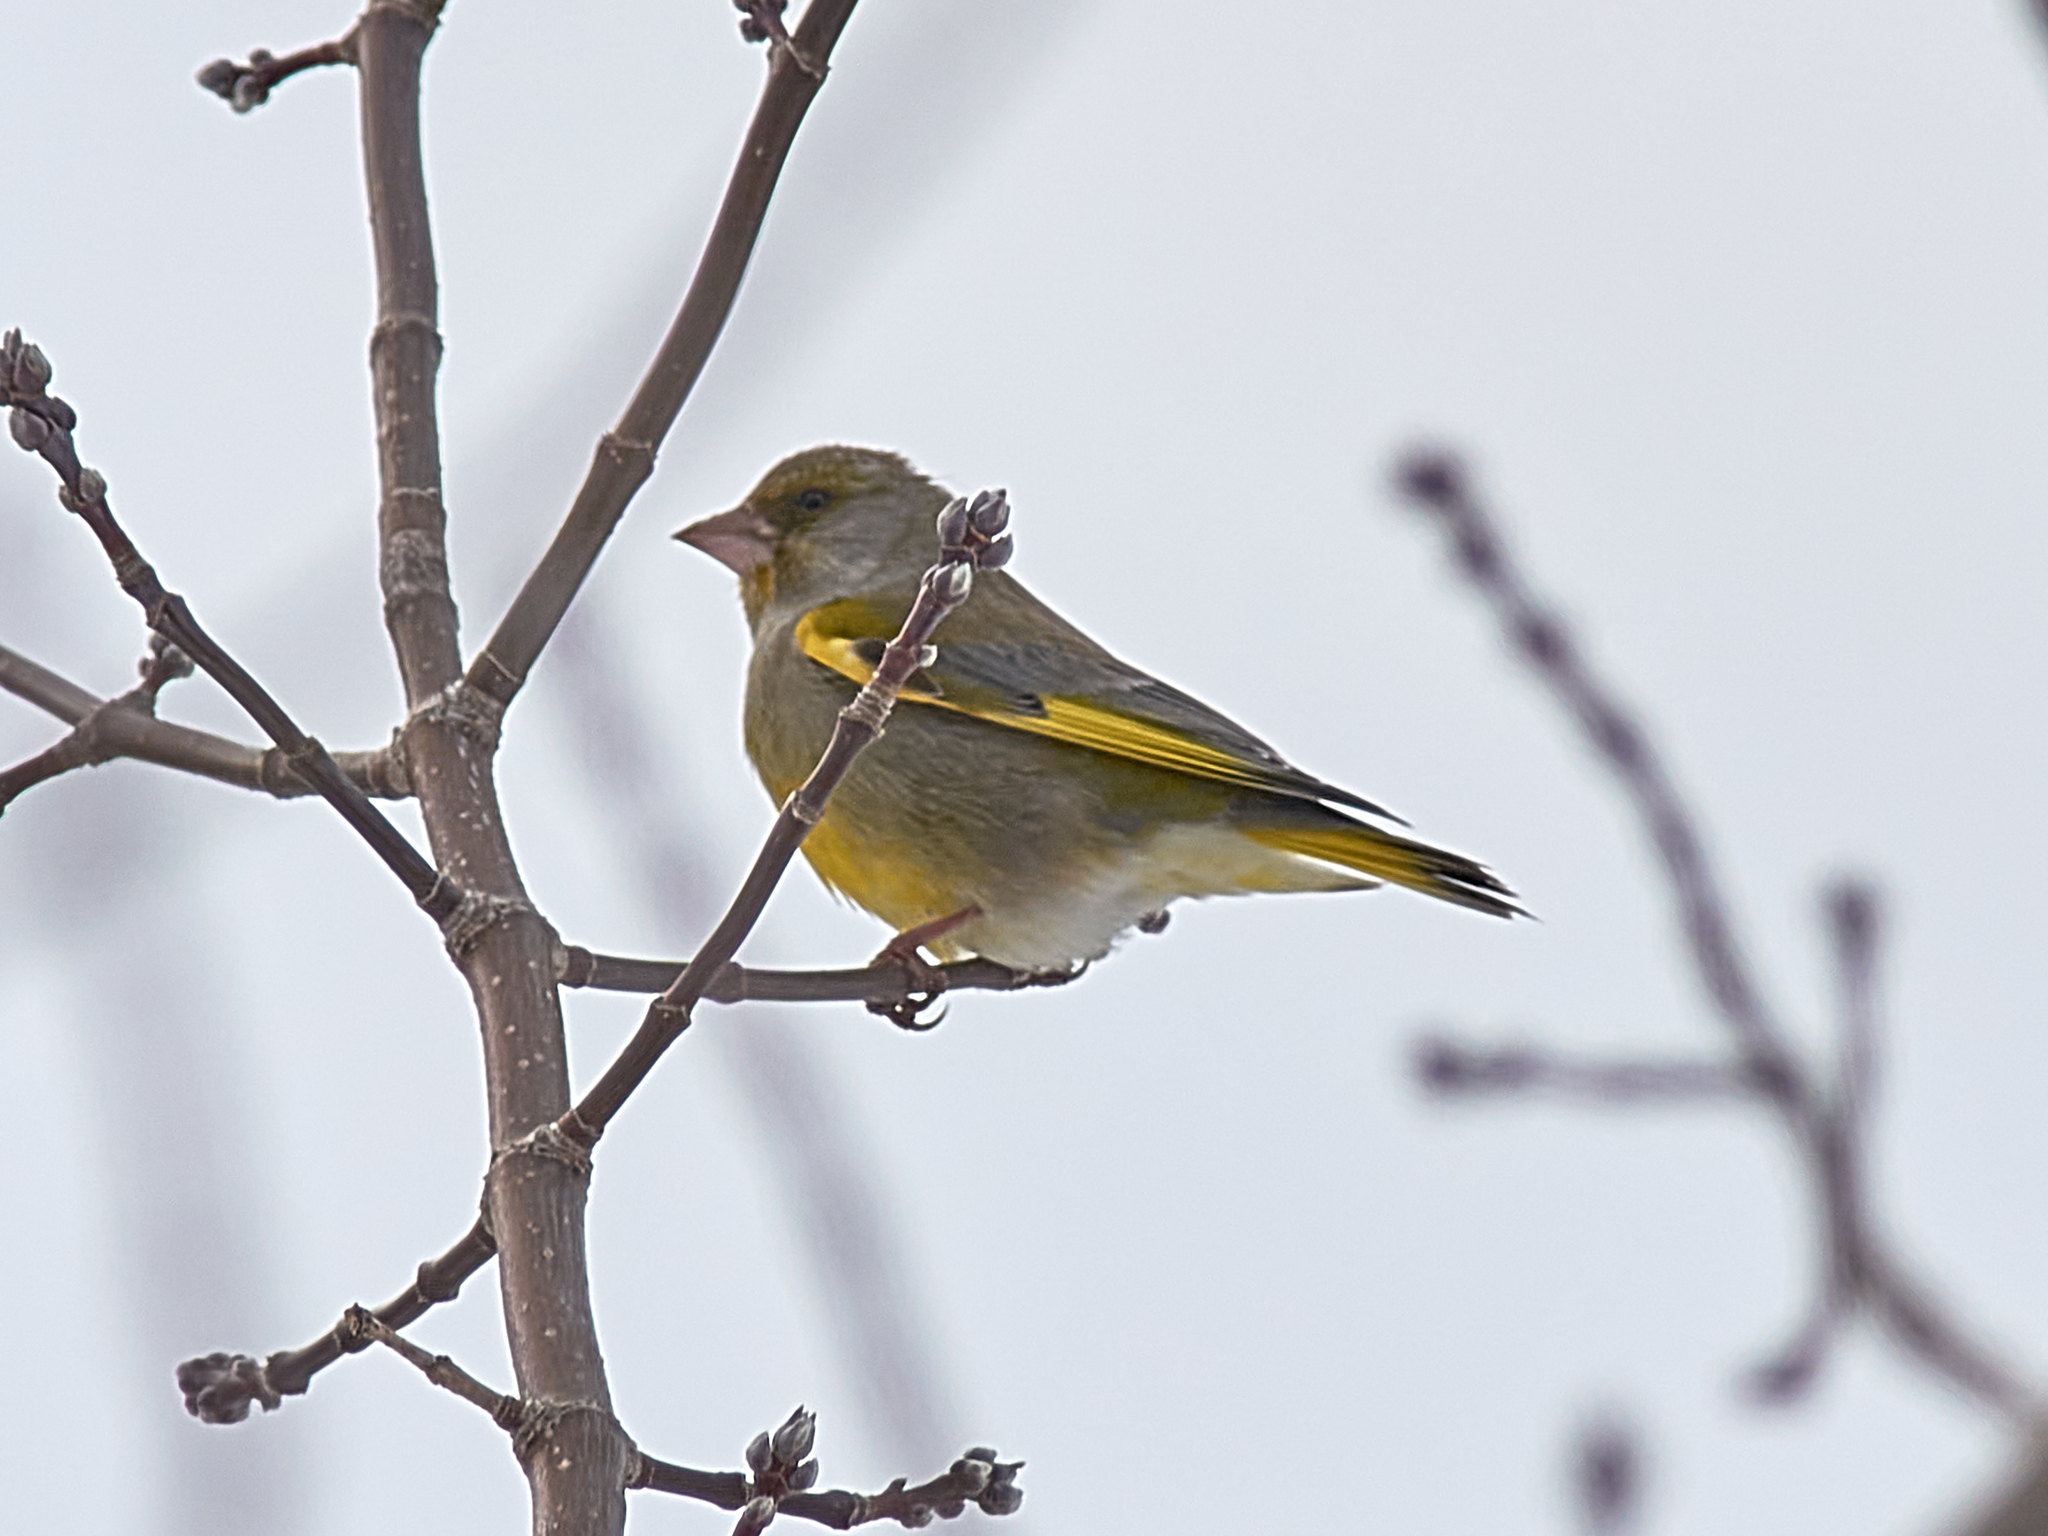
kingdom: Plantae
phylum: Tracheophyta
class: Liliopsida
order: Poales
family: Poaceae
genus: Chloris
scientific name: Chloris chloris
